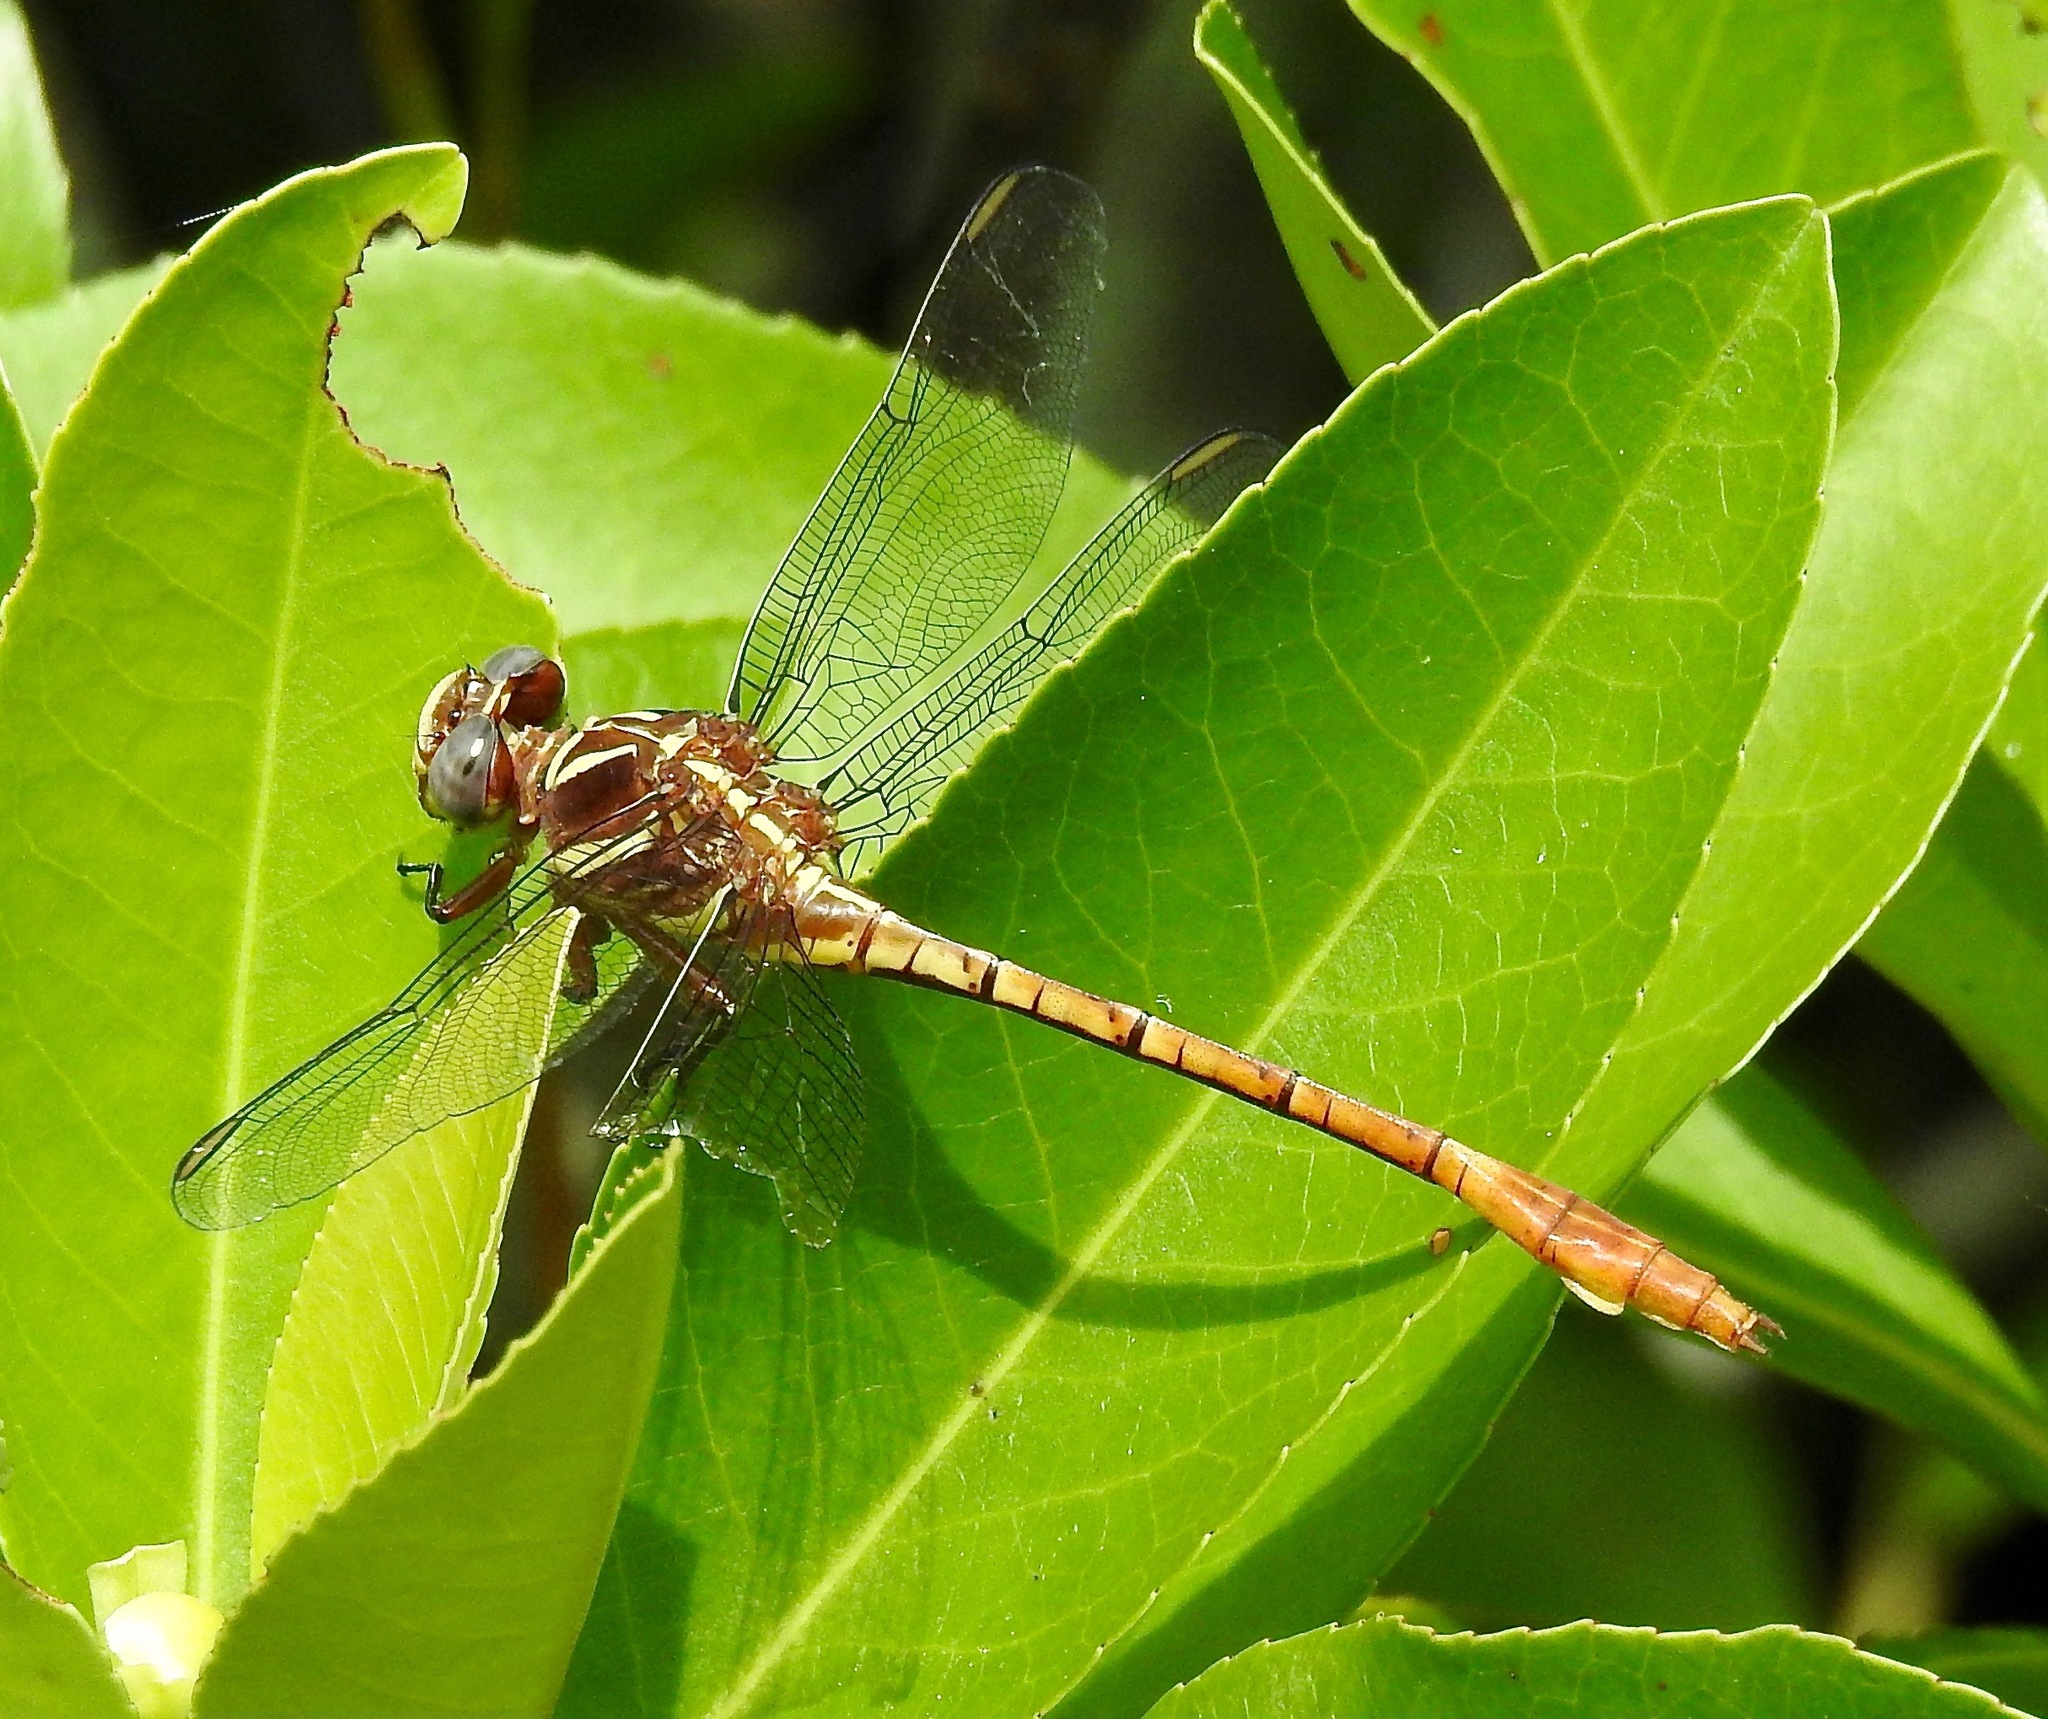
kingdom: Animalia
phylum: Arthropoda
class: Insecta
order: Odonata
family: Gomphidae
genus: Aphylla
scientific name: Aphylla williamsoni
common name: Two-striped forceptail
